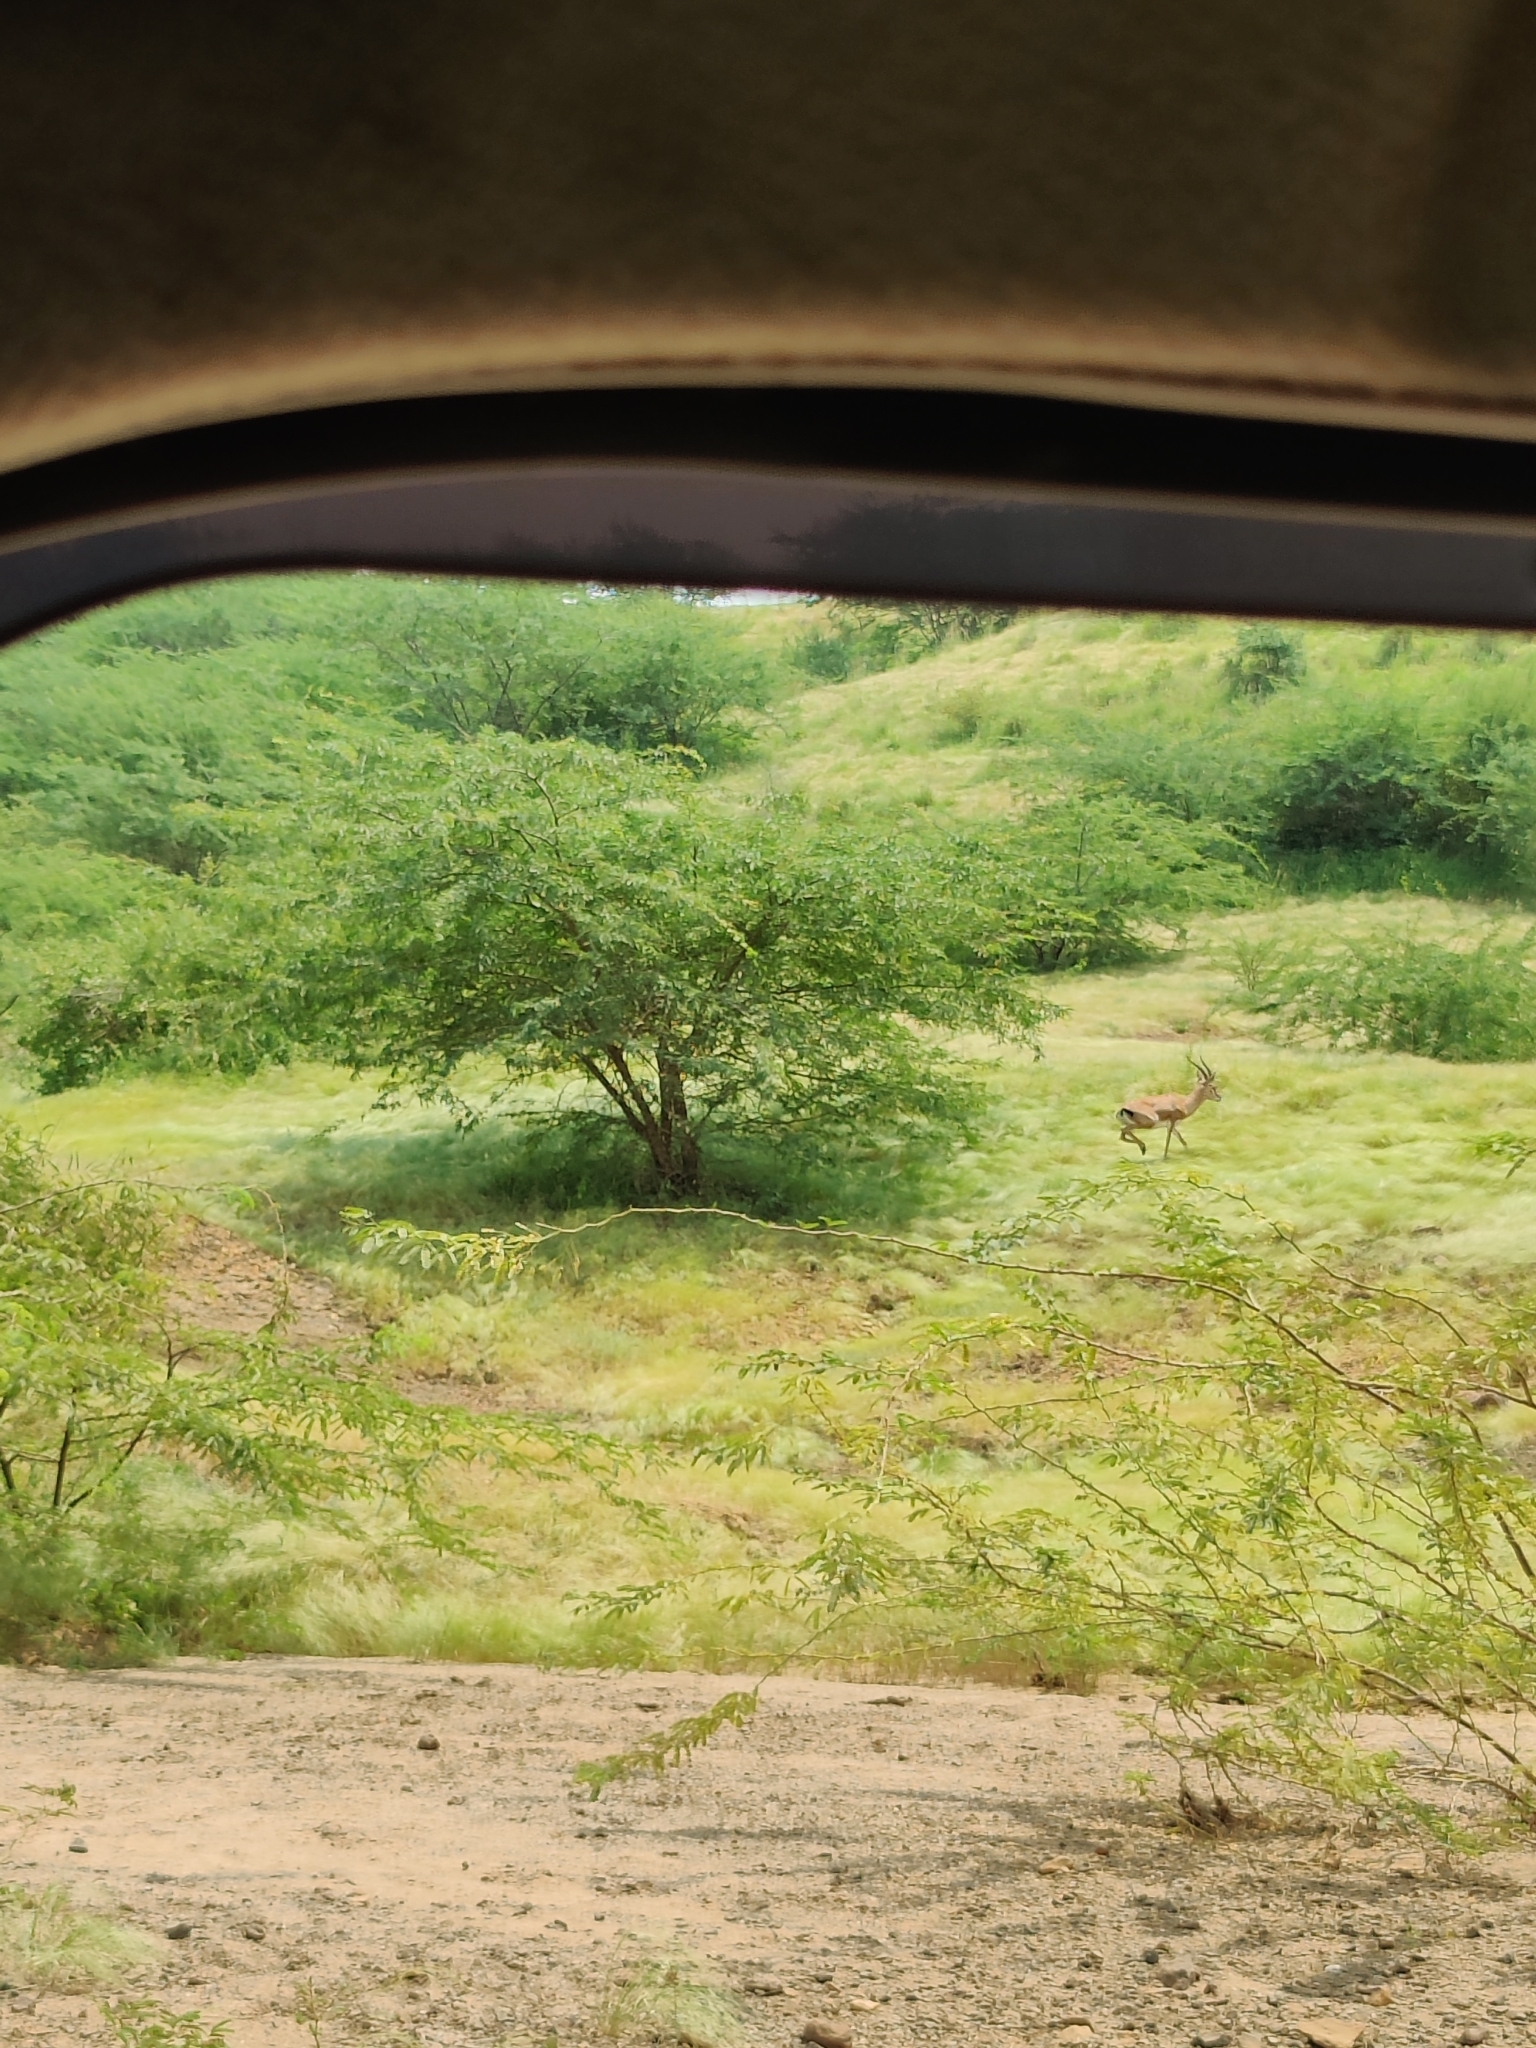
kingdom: Animalia
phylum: Chordata
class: Mammalia
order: Artiodactyla
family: Bovidae
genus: Gazella
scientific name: Gazella bennettii
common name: Indian gazelle
